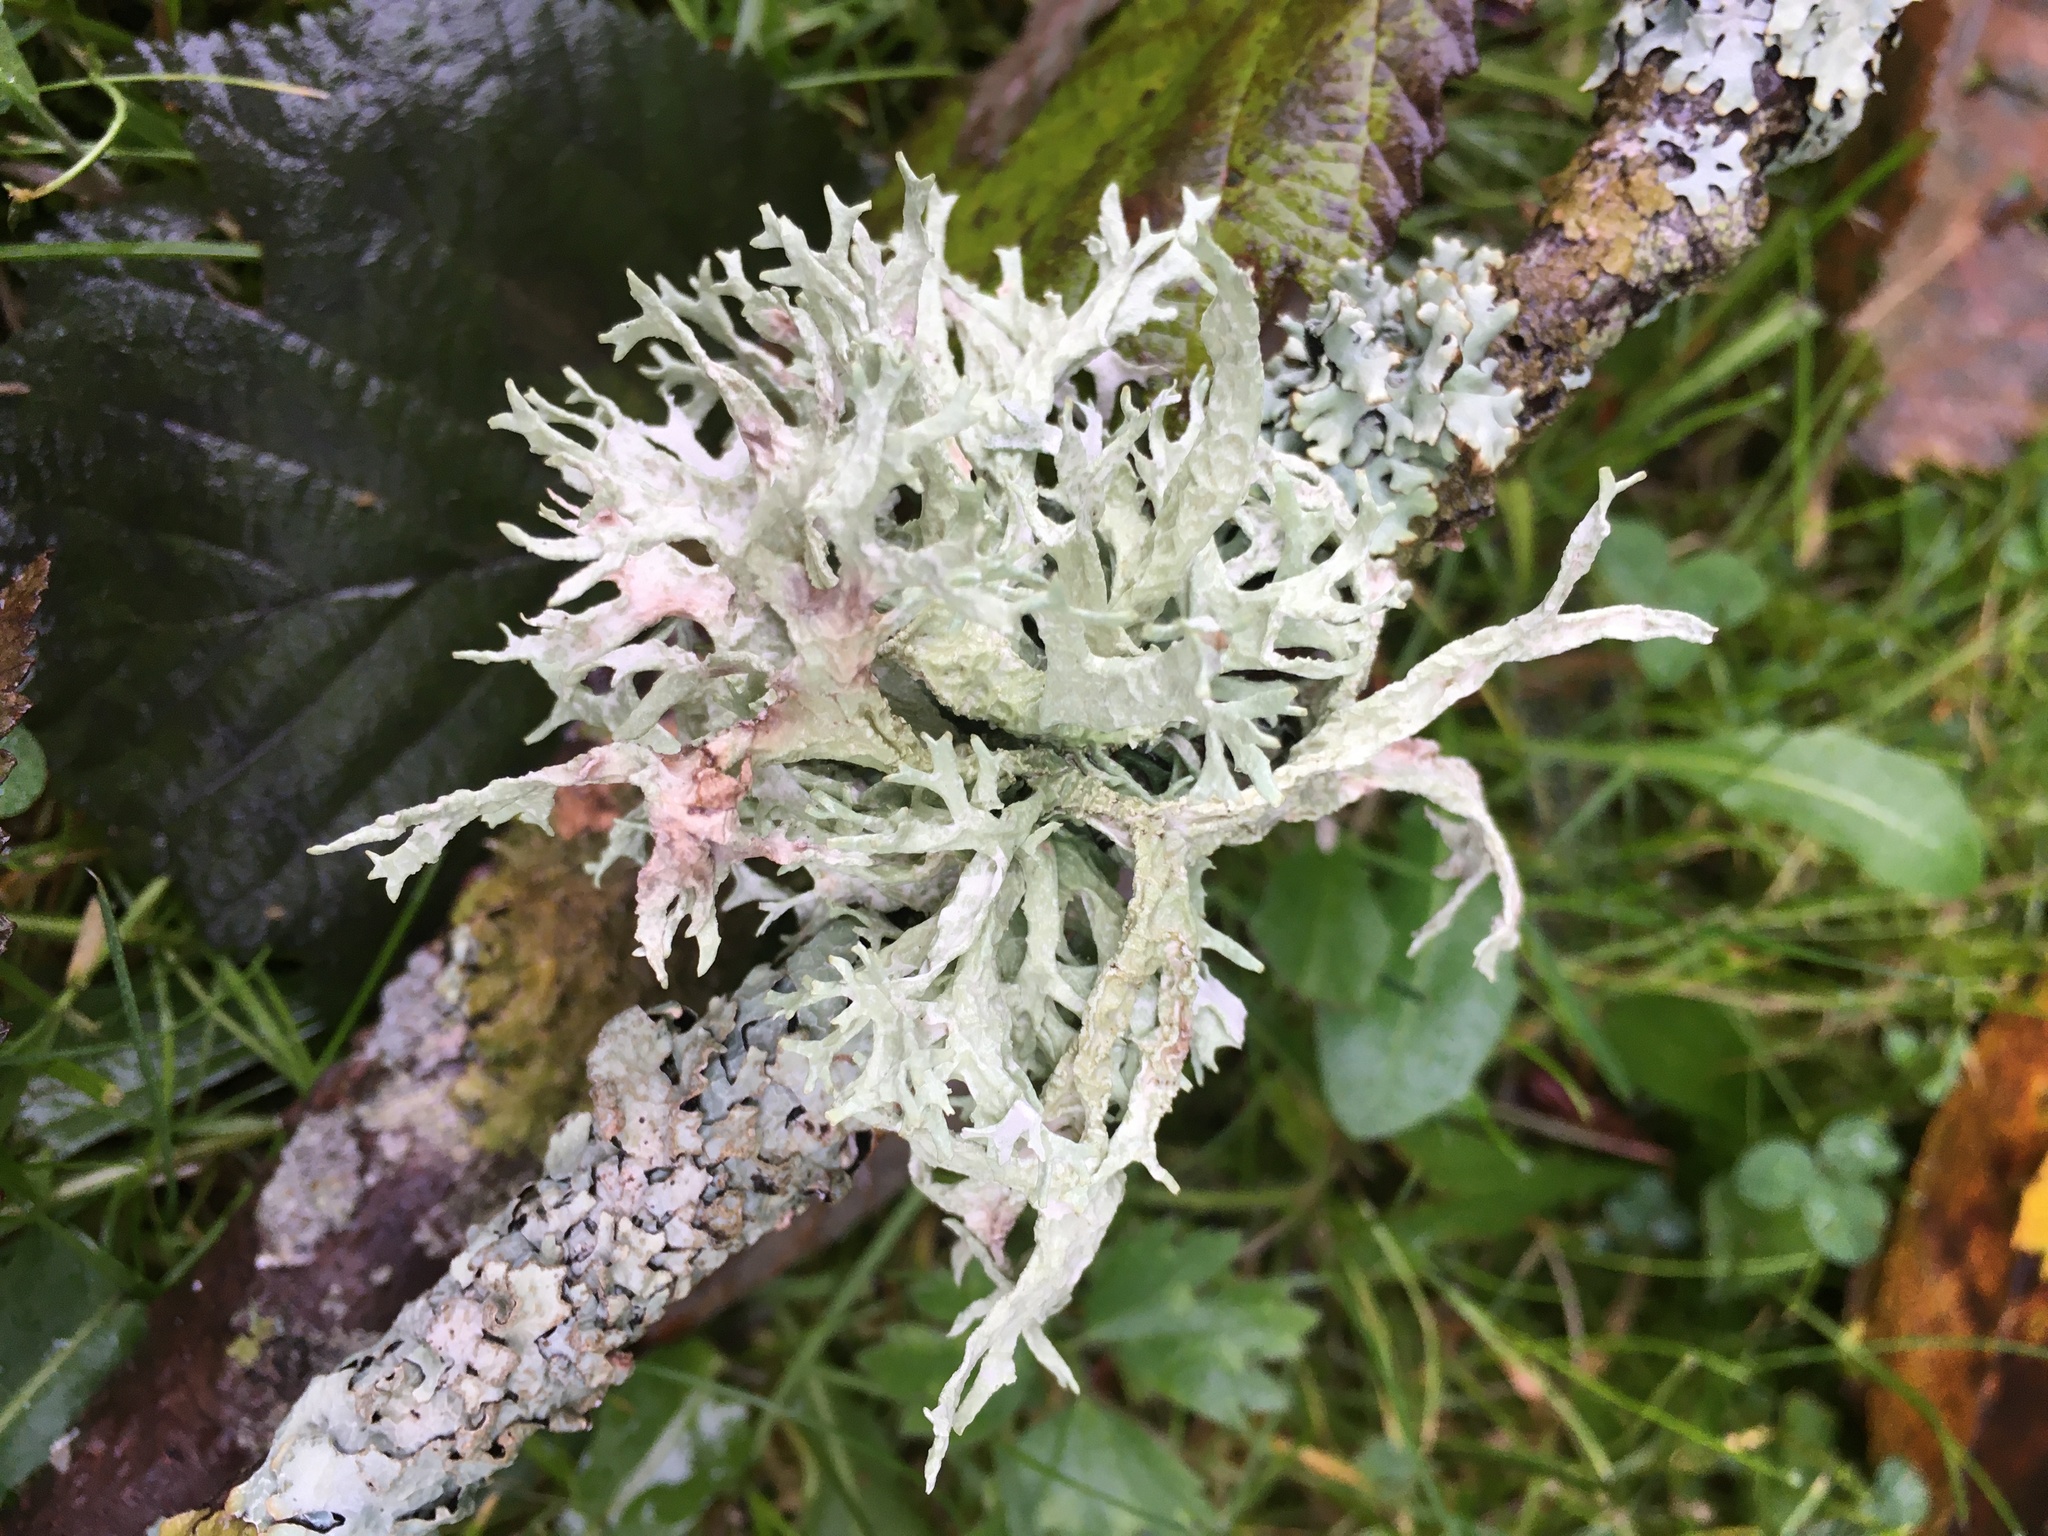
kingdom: Fungi
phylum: Ascomycota
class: Lecanoromycetes
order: Lecanorales
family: Parmeliaceae
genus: Evernia
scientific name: Evernia prunastri
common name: Oak moss
